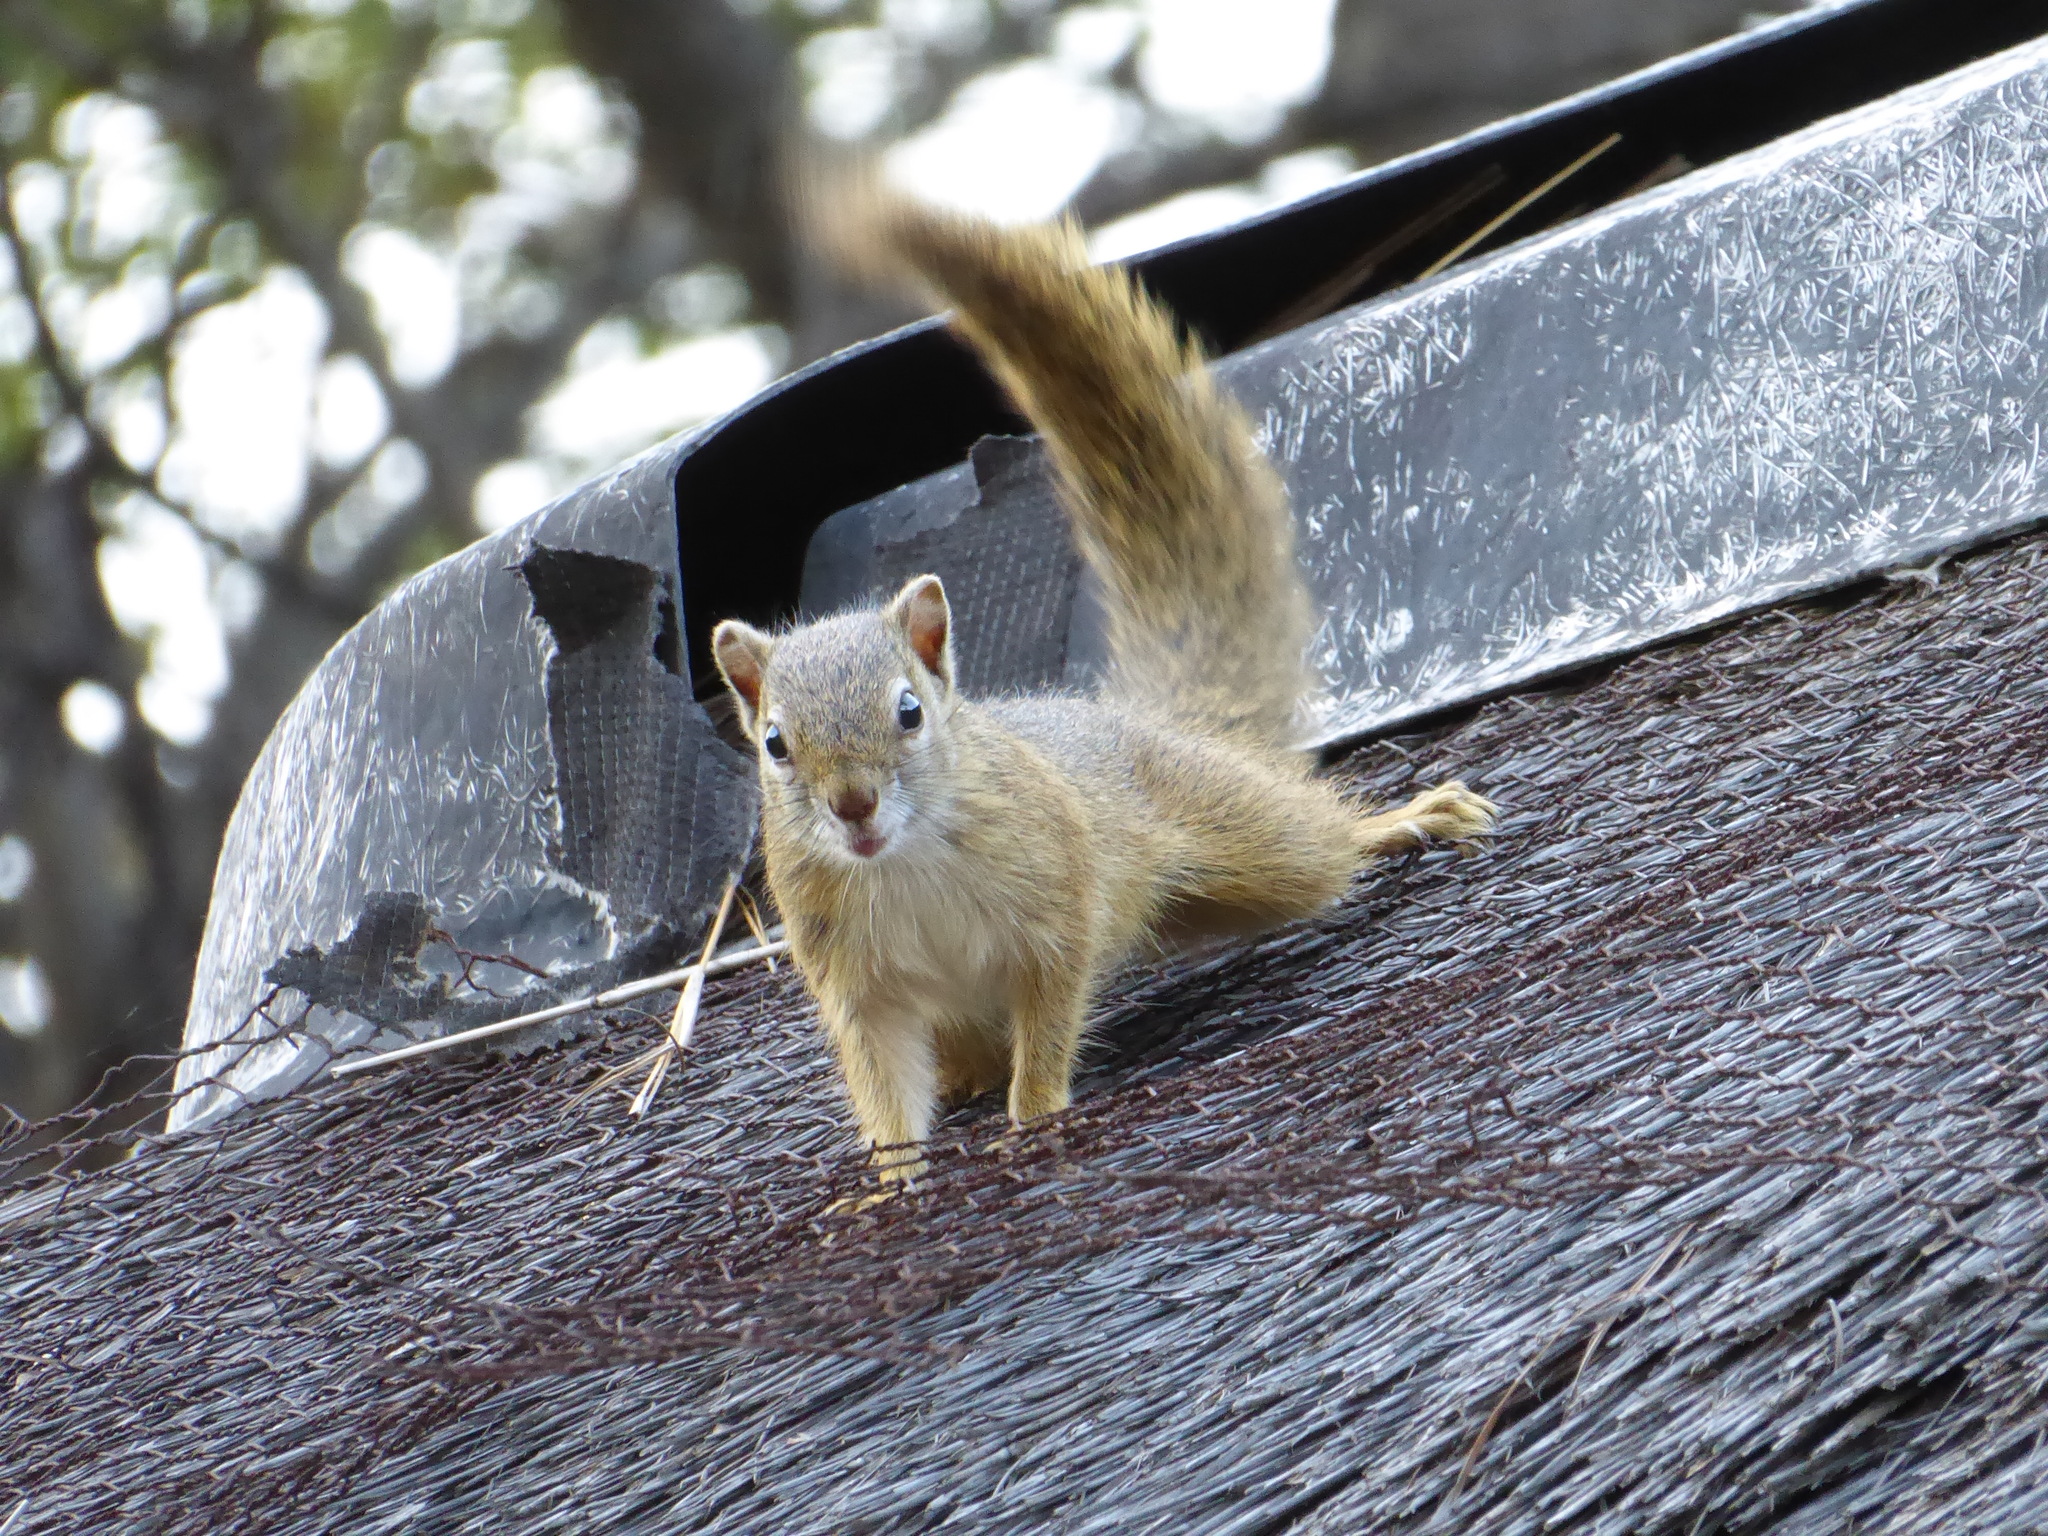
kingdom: Animalia
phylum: Chordata
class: Mammalia
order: Rodentia
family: Sciuridae
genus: Paraxerus
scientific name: Paraxerus cepapi
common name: Smith's bush squirrel
